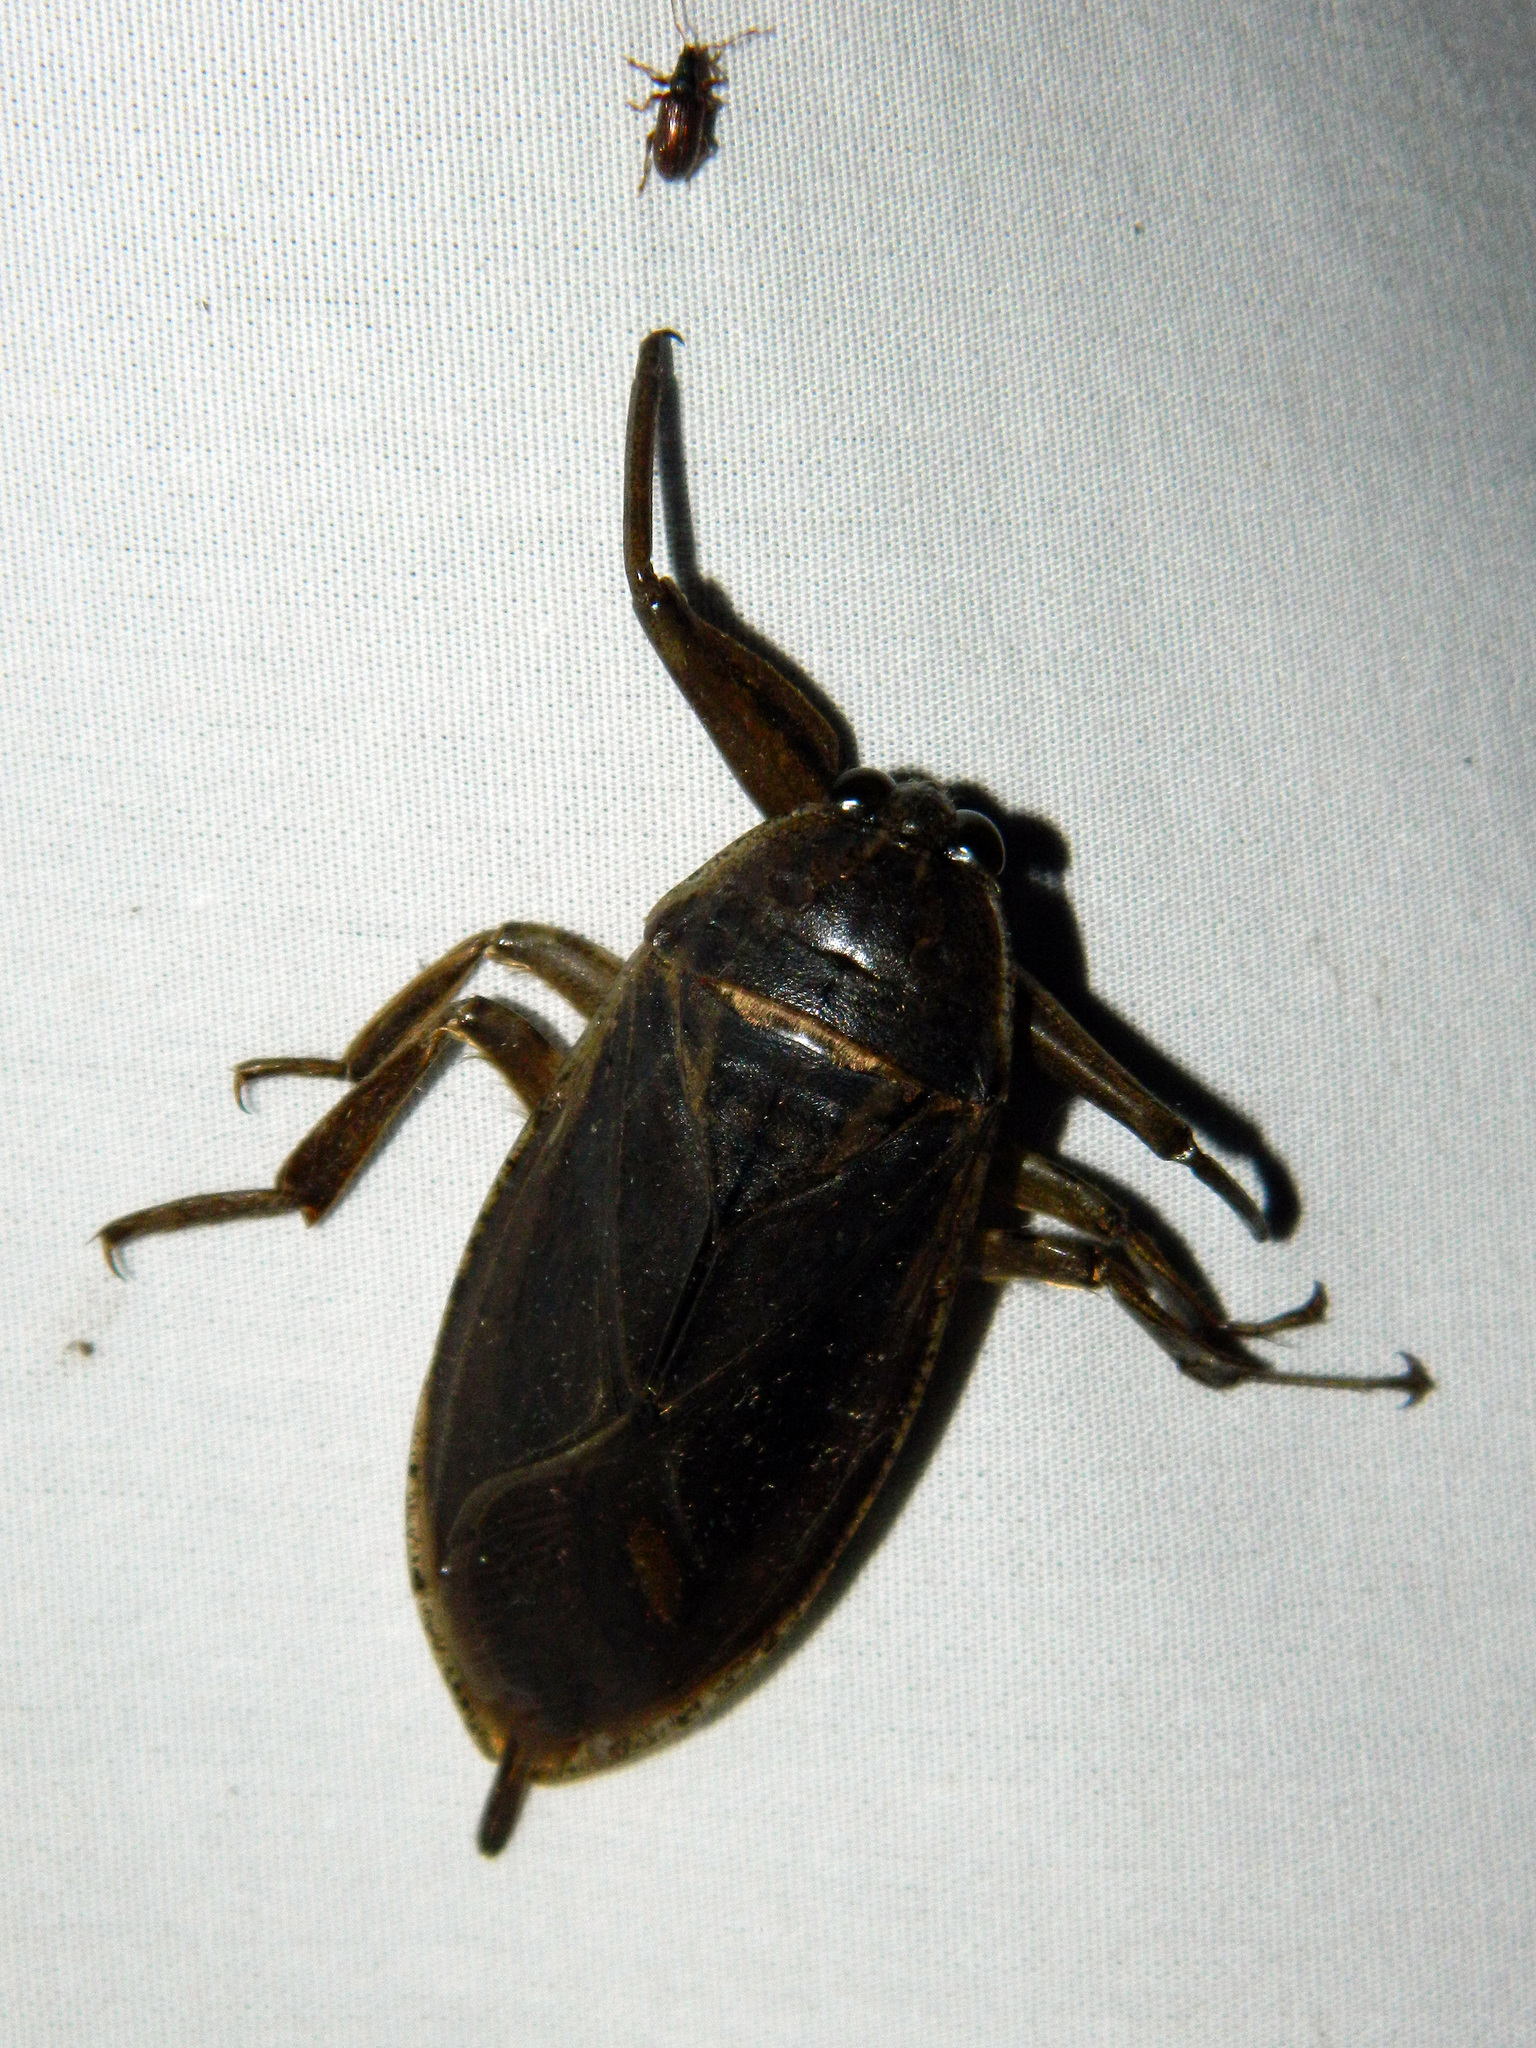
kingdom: Animalia
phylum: Arthropoda
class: Insecta
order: Hemiptera
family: Belostomatidae
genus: Lethocerus
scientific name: Lethocerus americanus
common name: Giant water bug
